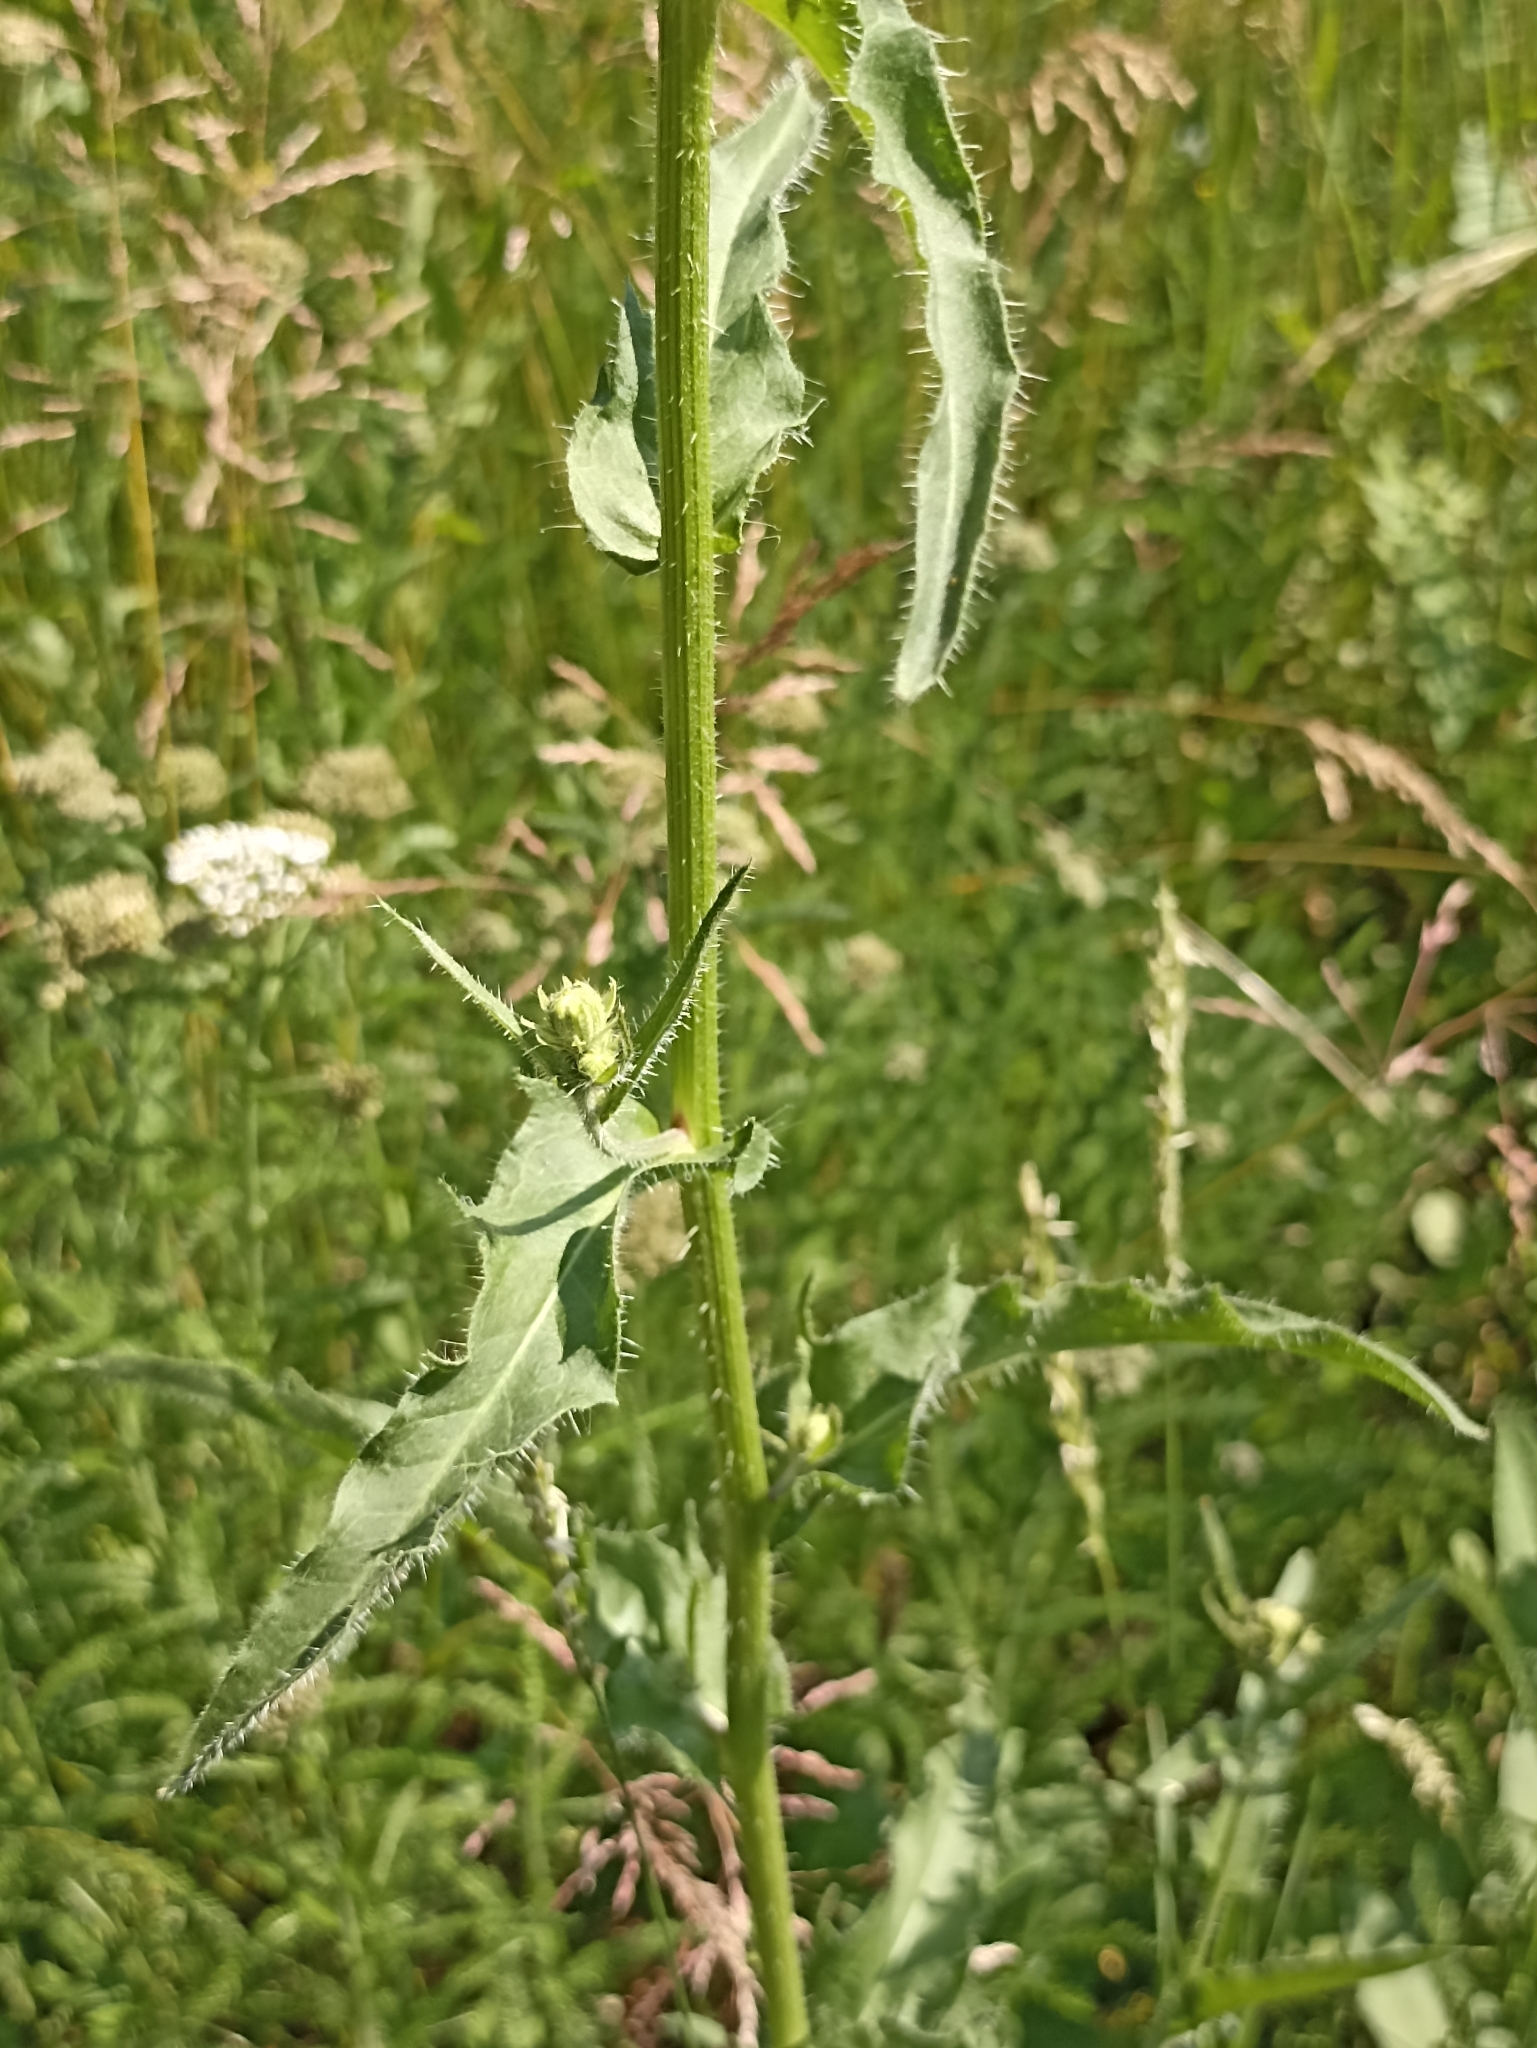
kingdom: Plantae
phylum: Tracheophyta
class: Magnoliopsida
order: Asterales
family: Asteraceae
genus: Picris
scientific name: Picris hieracioides
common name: Hawkweed oxtongue
